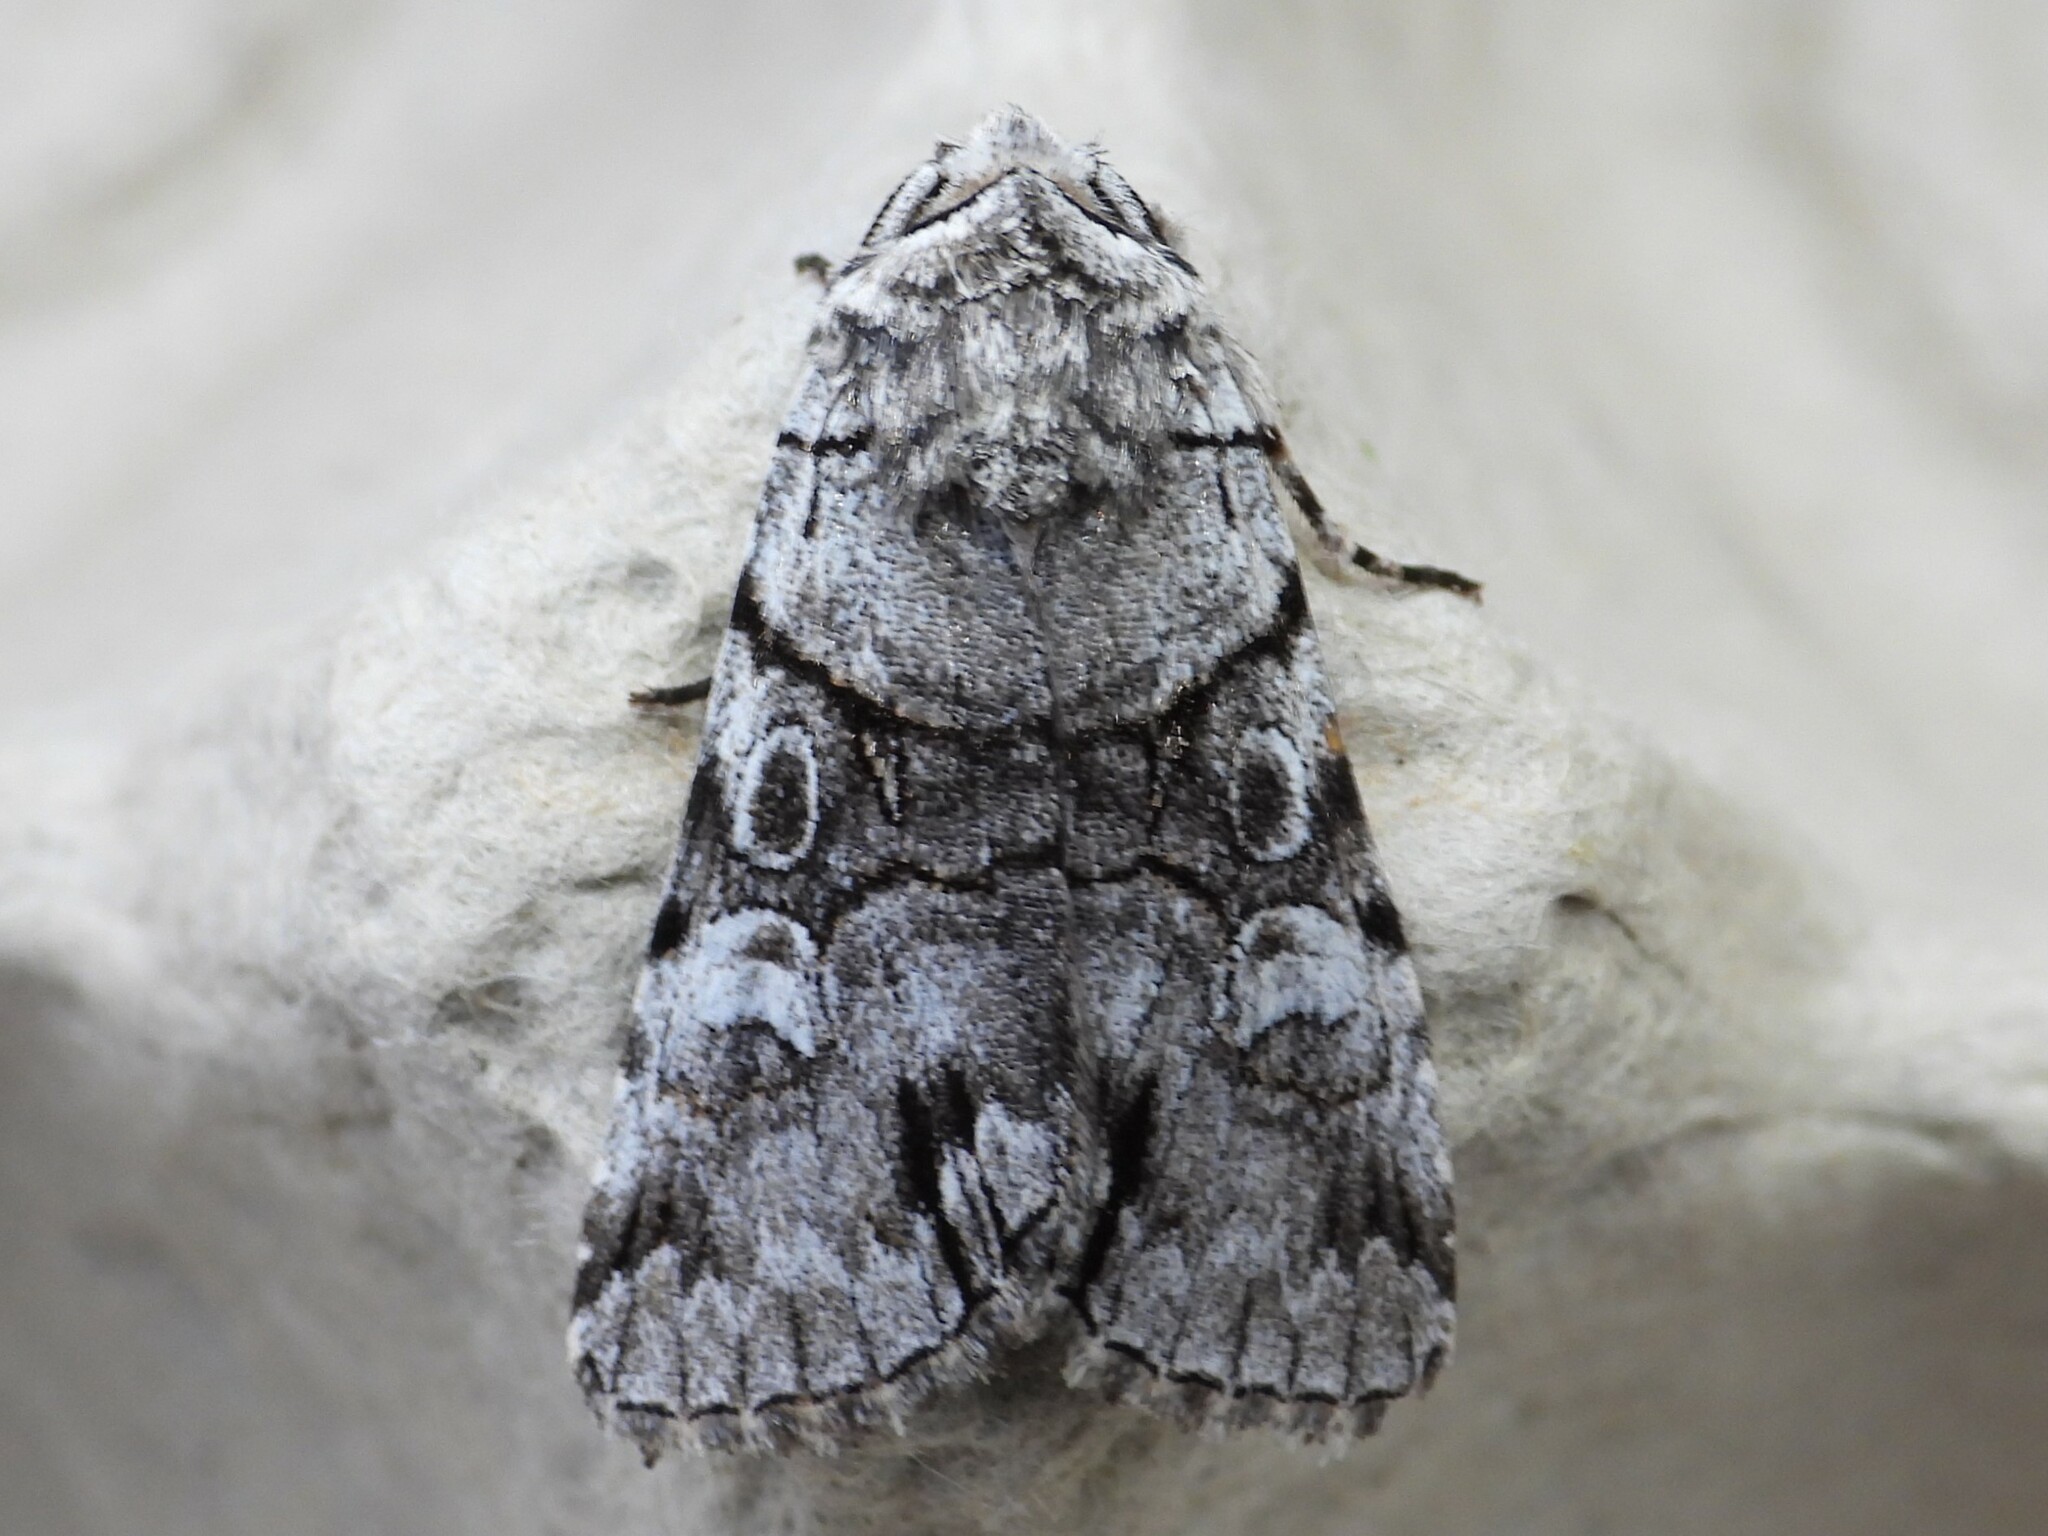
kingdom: Animalia
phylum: Arthropoda
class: Insecta
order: Lepidoptera
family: Noctuidae
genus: Sympistis
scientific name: Sympistis chionanthi
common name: Fringe-tree sallow
